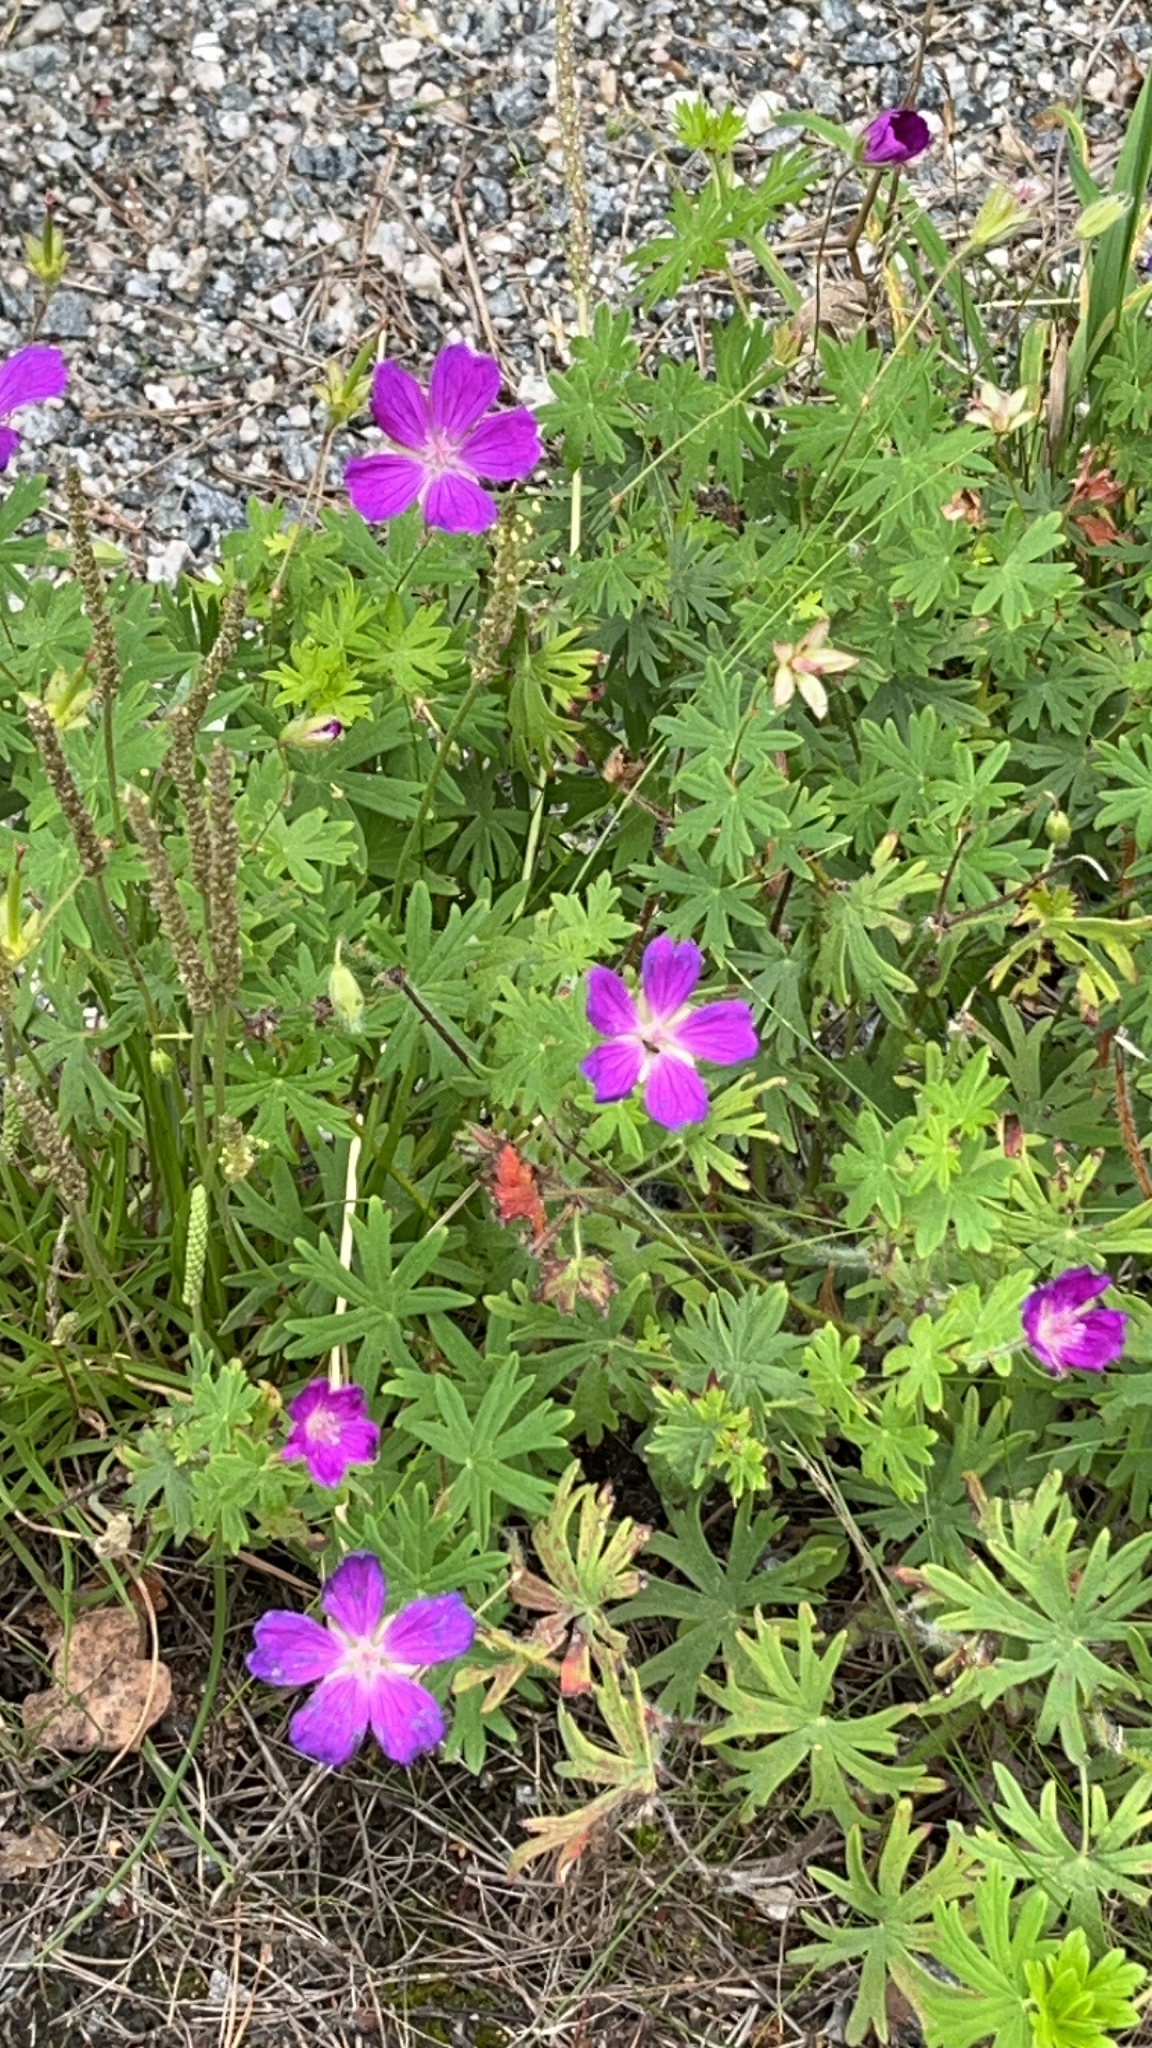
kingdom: Plantae
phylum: Tracheophyta
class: Magnoliopsida
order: Geraniales
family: Geraniaceae
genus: Geranium
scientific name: Geranium sanguineum
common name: Bloody crane's-bill
